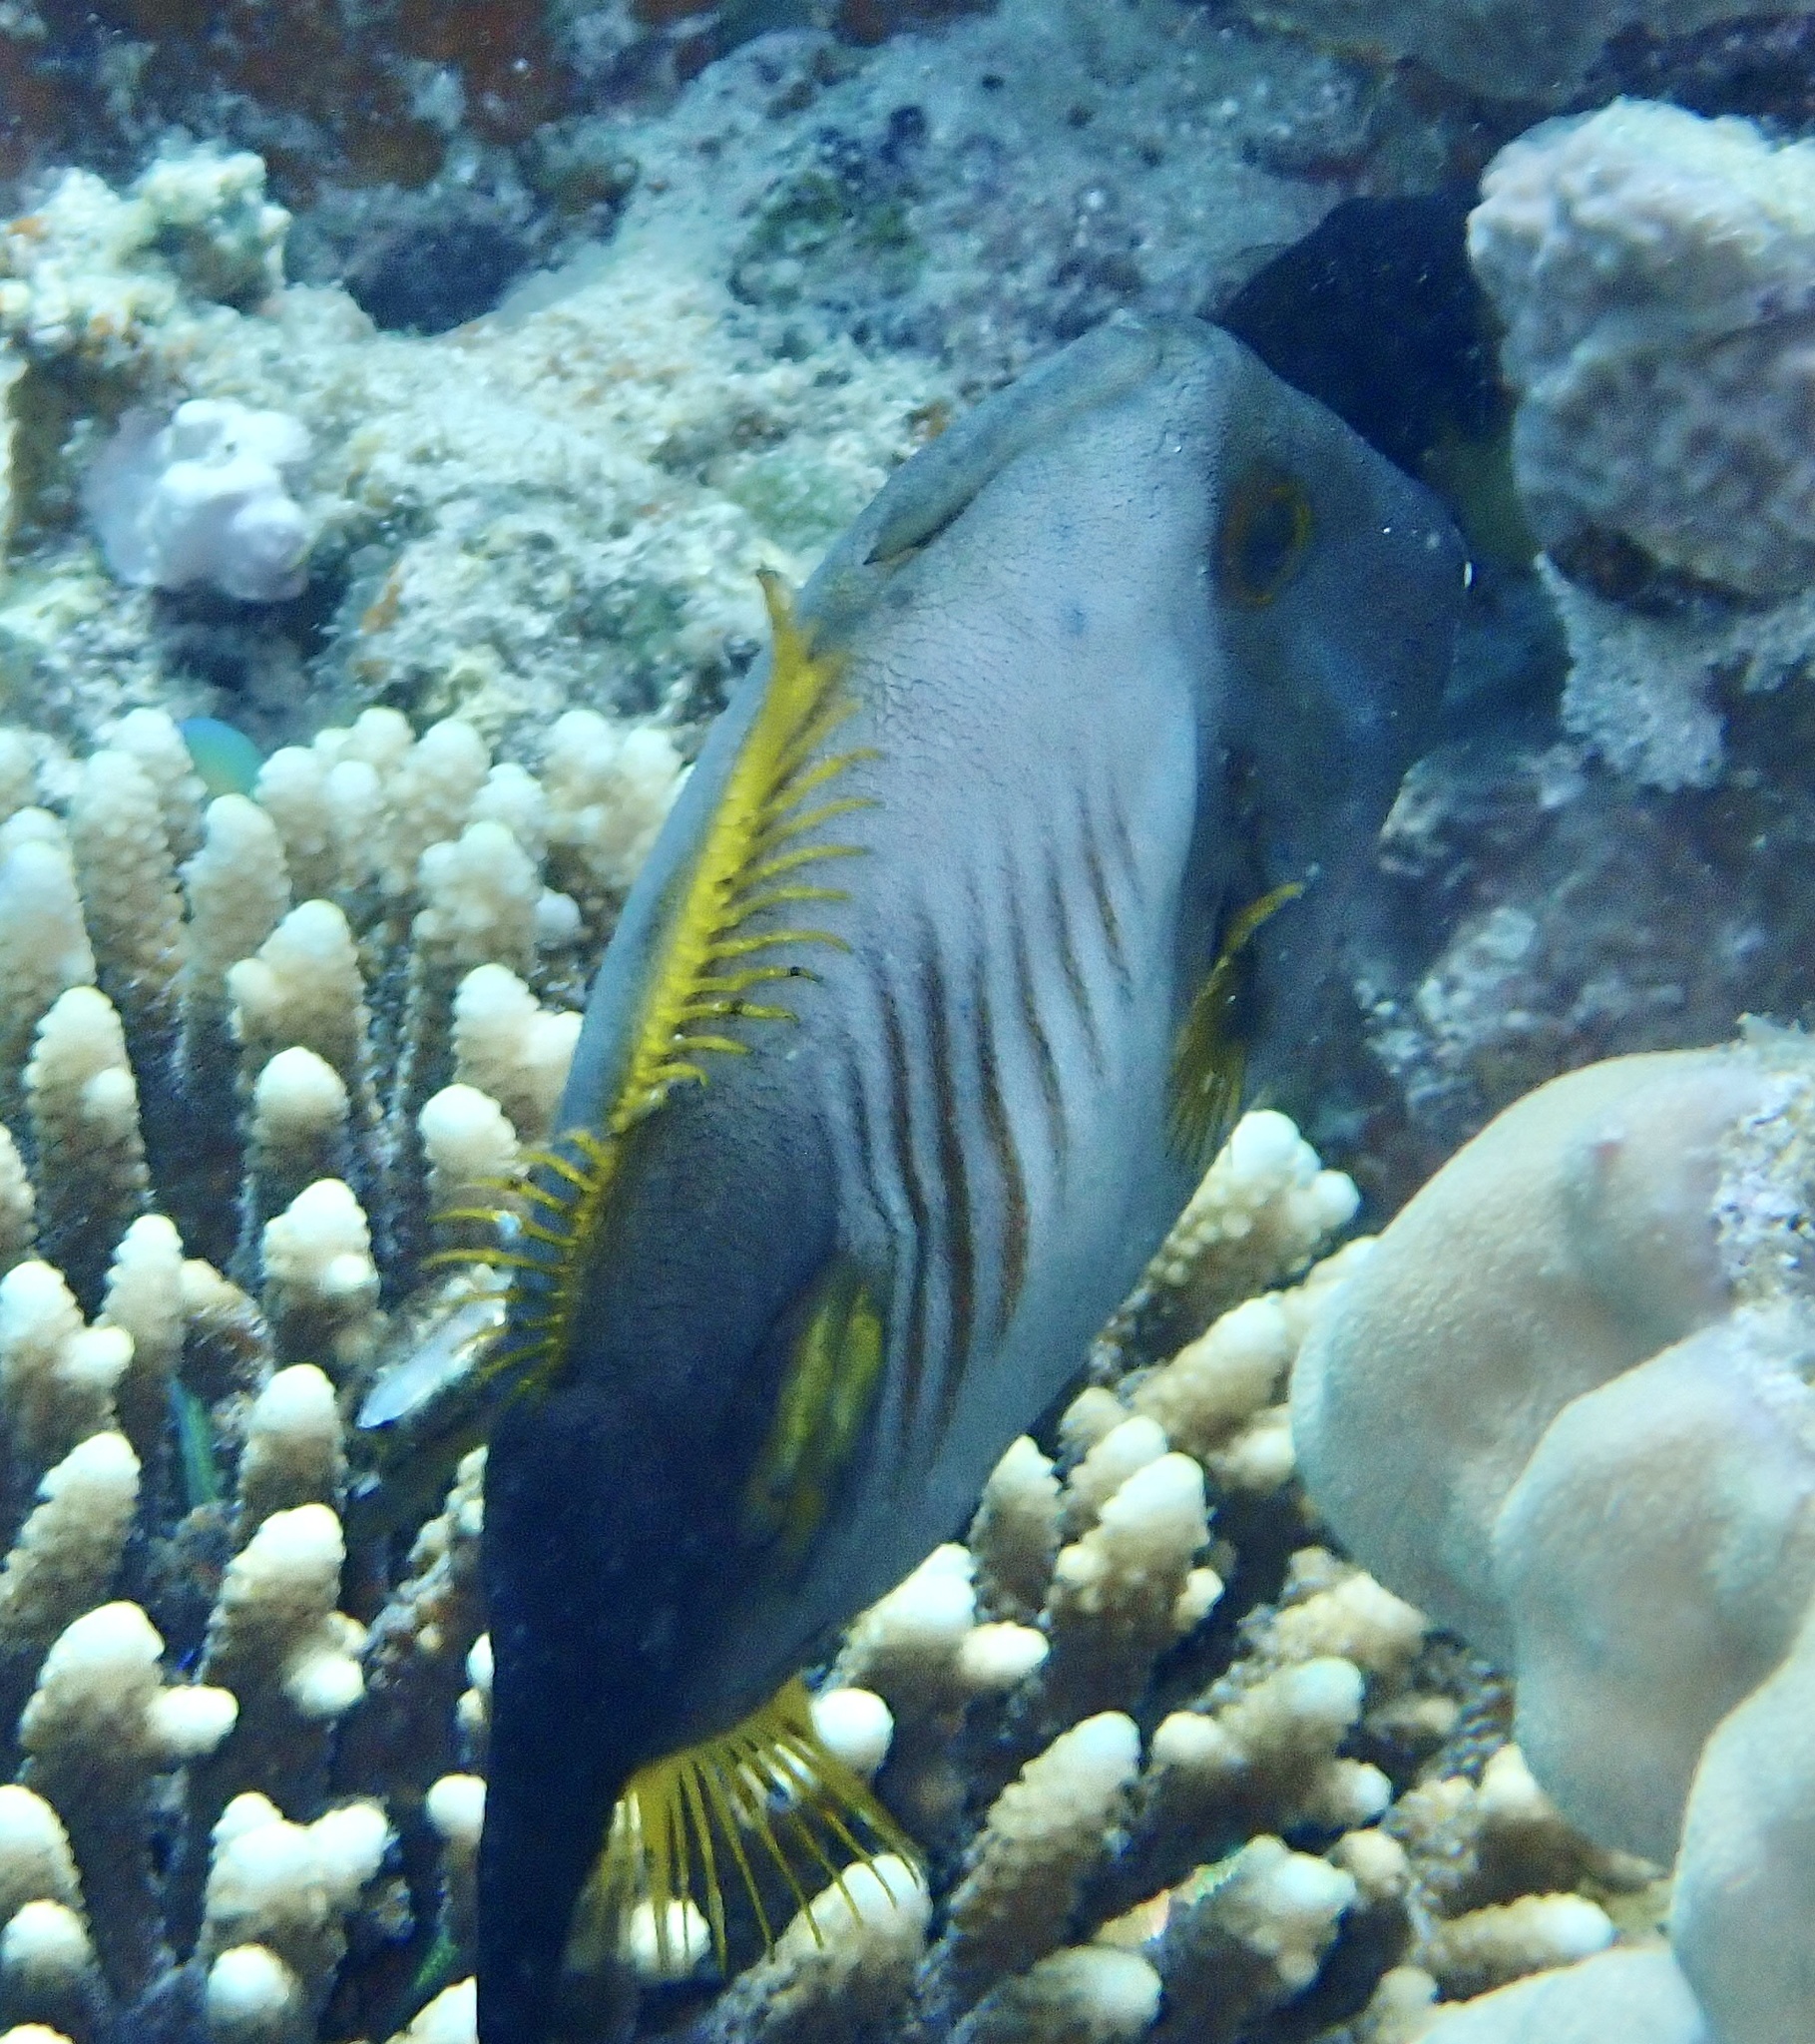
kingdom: Animalia
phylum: Chordata
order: Tetraodontiformes
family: Monacanthidae
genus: Amanses
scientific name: Amanses scopas
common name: Broom filefish
